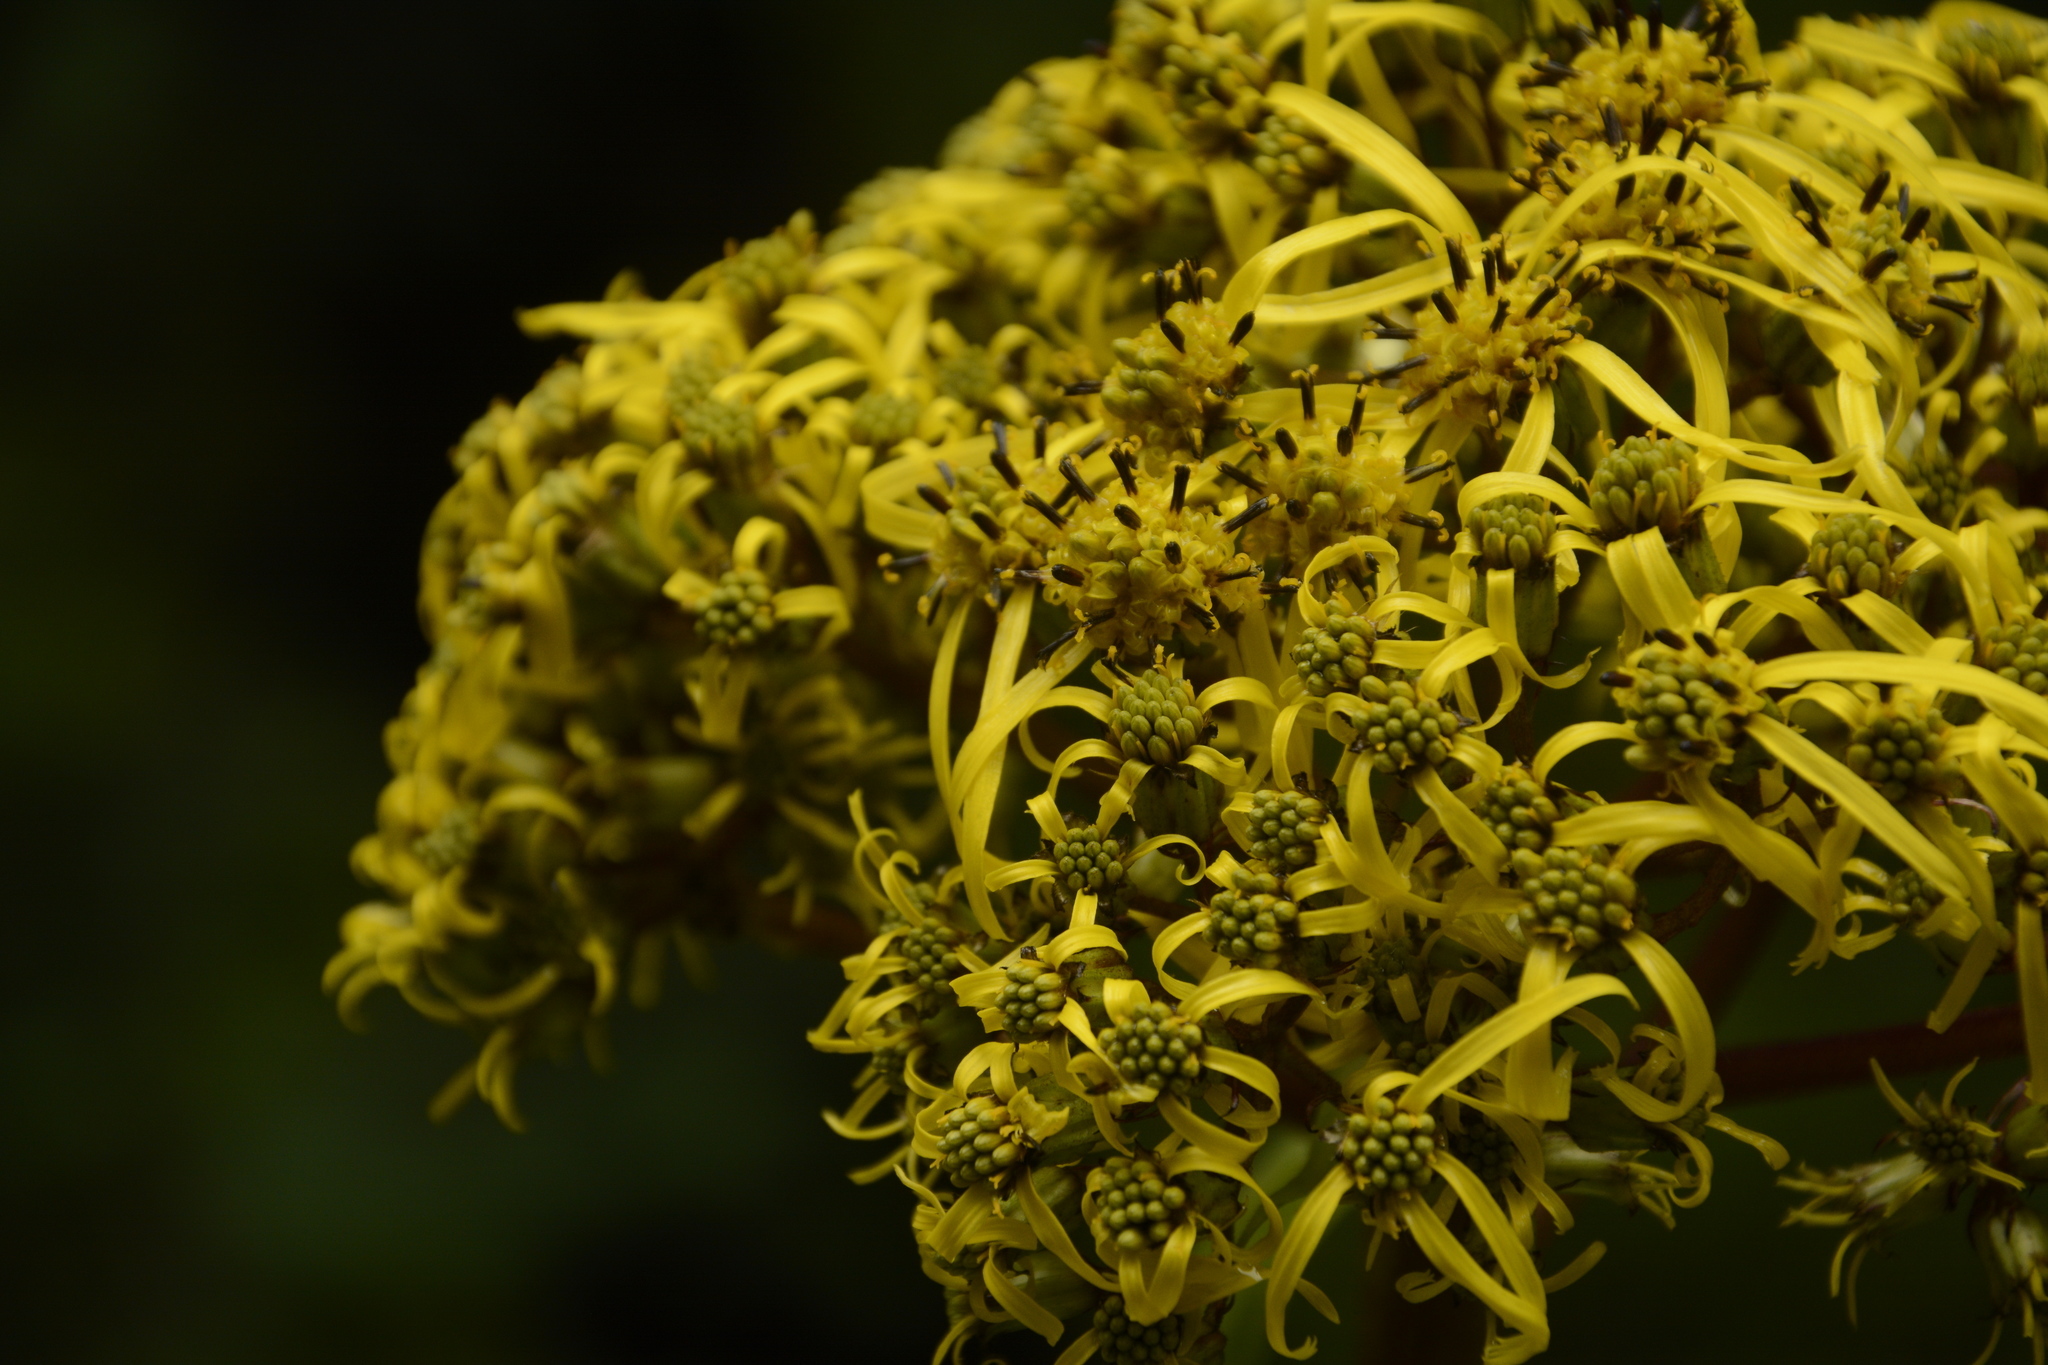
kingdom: Plantae
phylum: Tracheophyta
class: Magnoliopsida
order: Asterales
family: Asteraceae
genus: Ligularia
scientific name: Ligularia amplexicaulis
